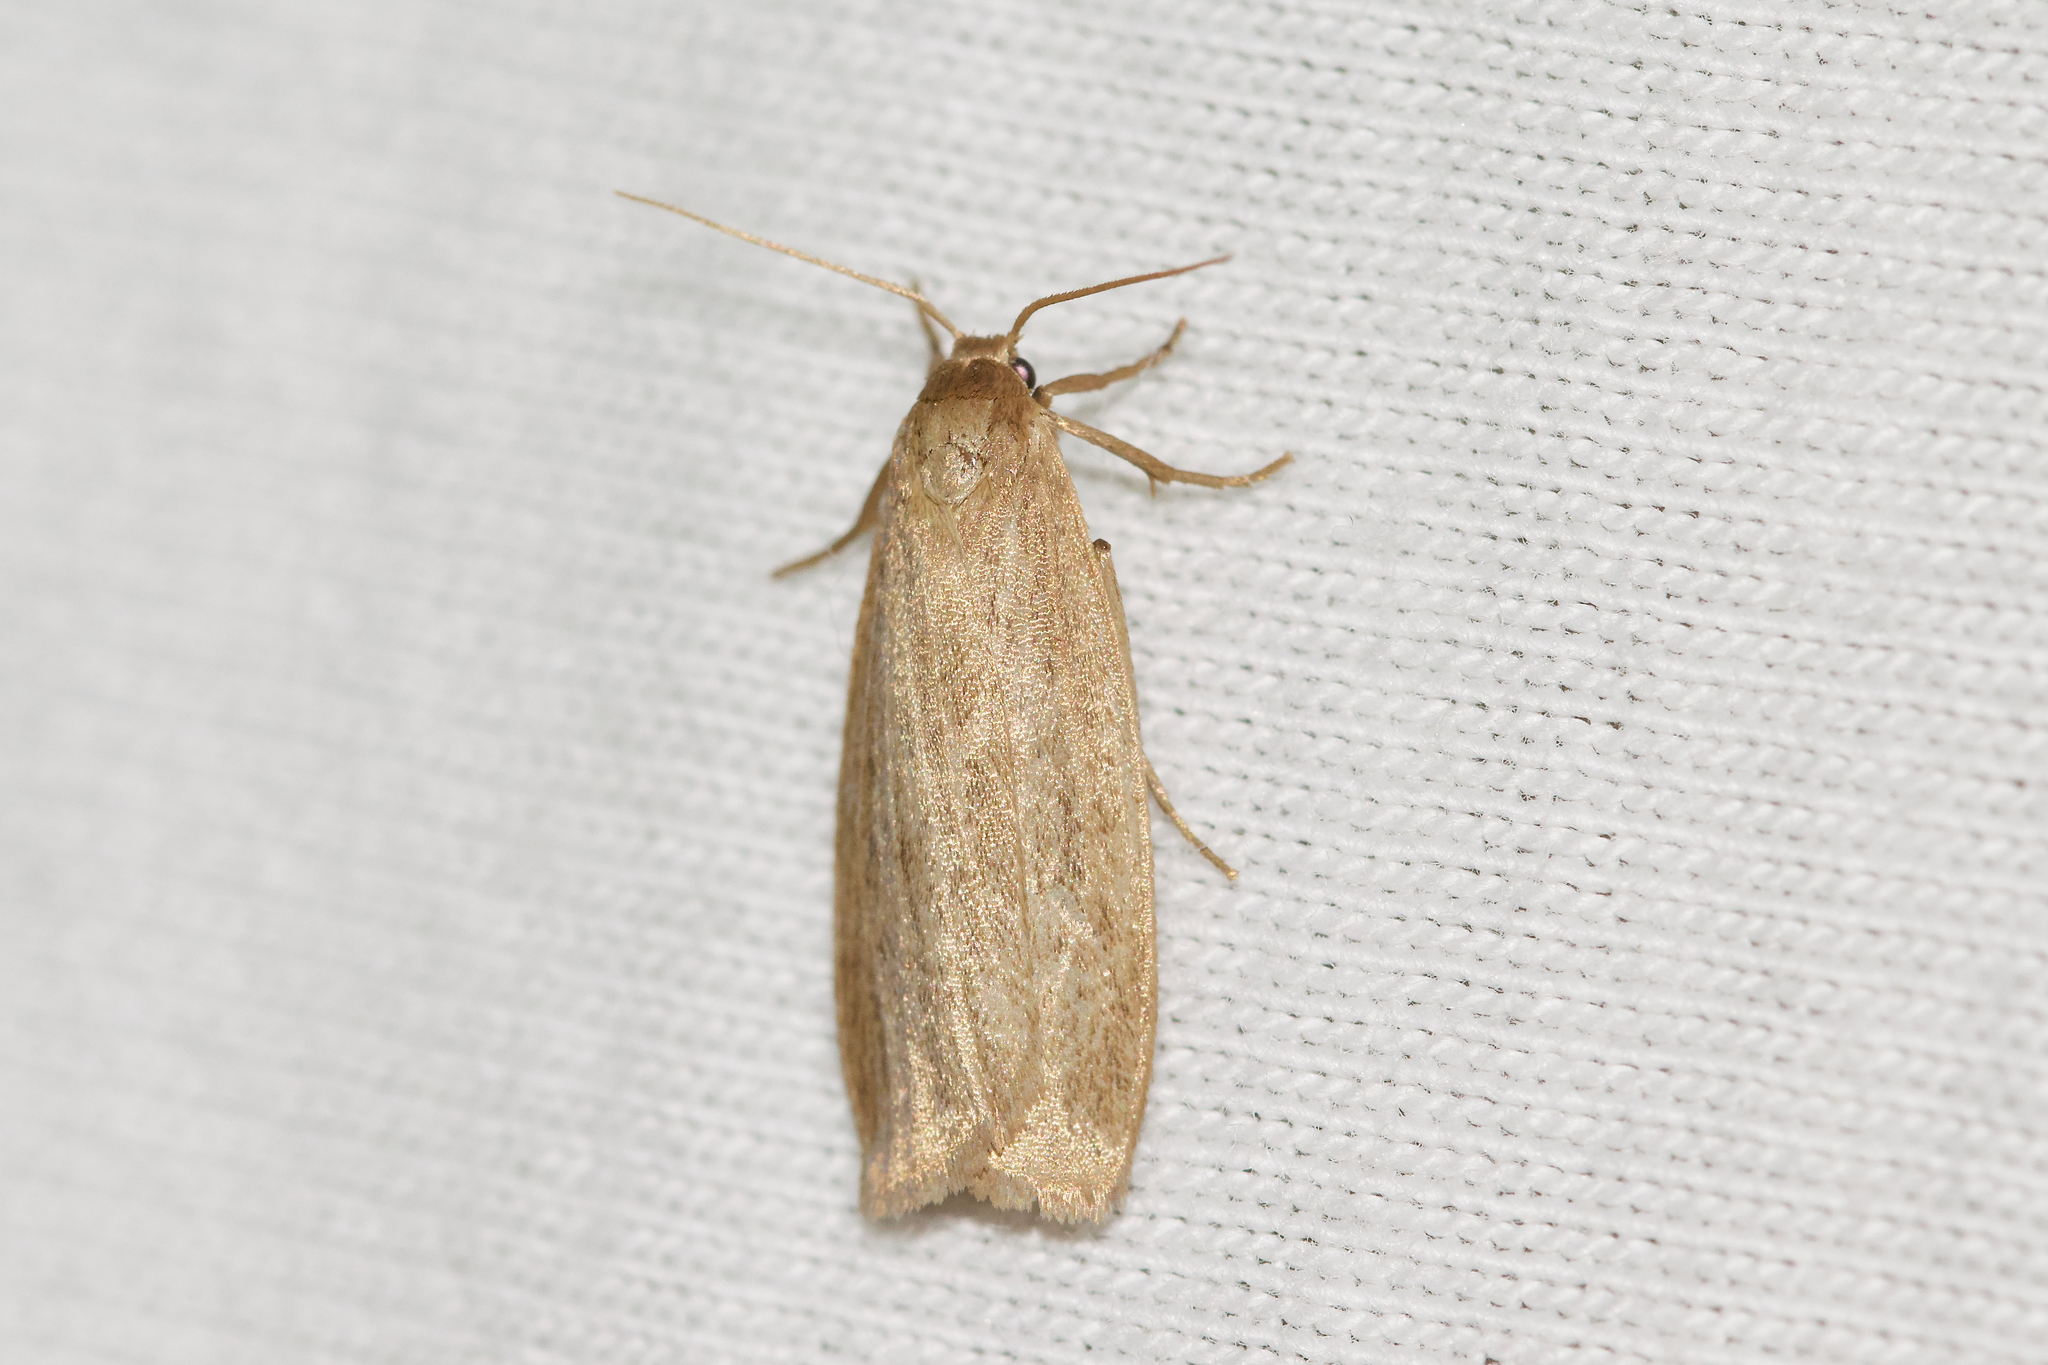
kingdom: Animalia
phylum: Arthropoda
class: Insecta
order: Lepidoptera
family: Erebidae
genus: Crambidia
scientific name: Crambidia pallida
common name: Pale lichen moth
